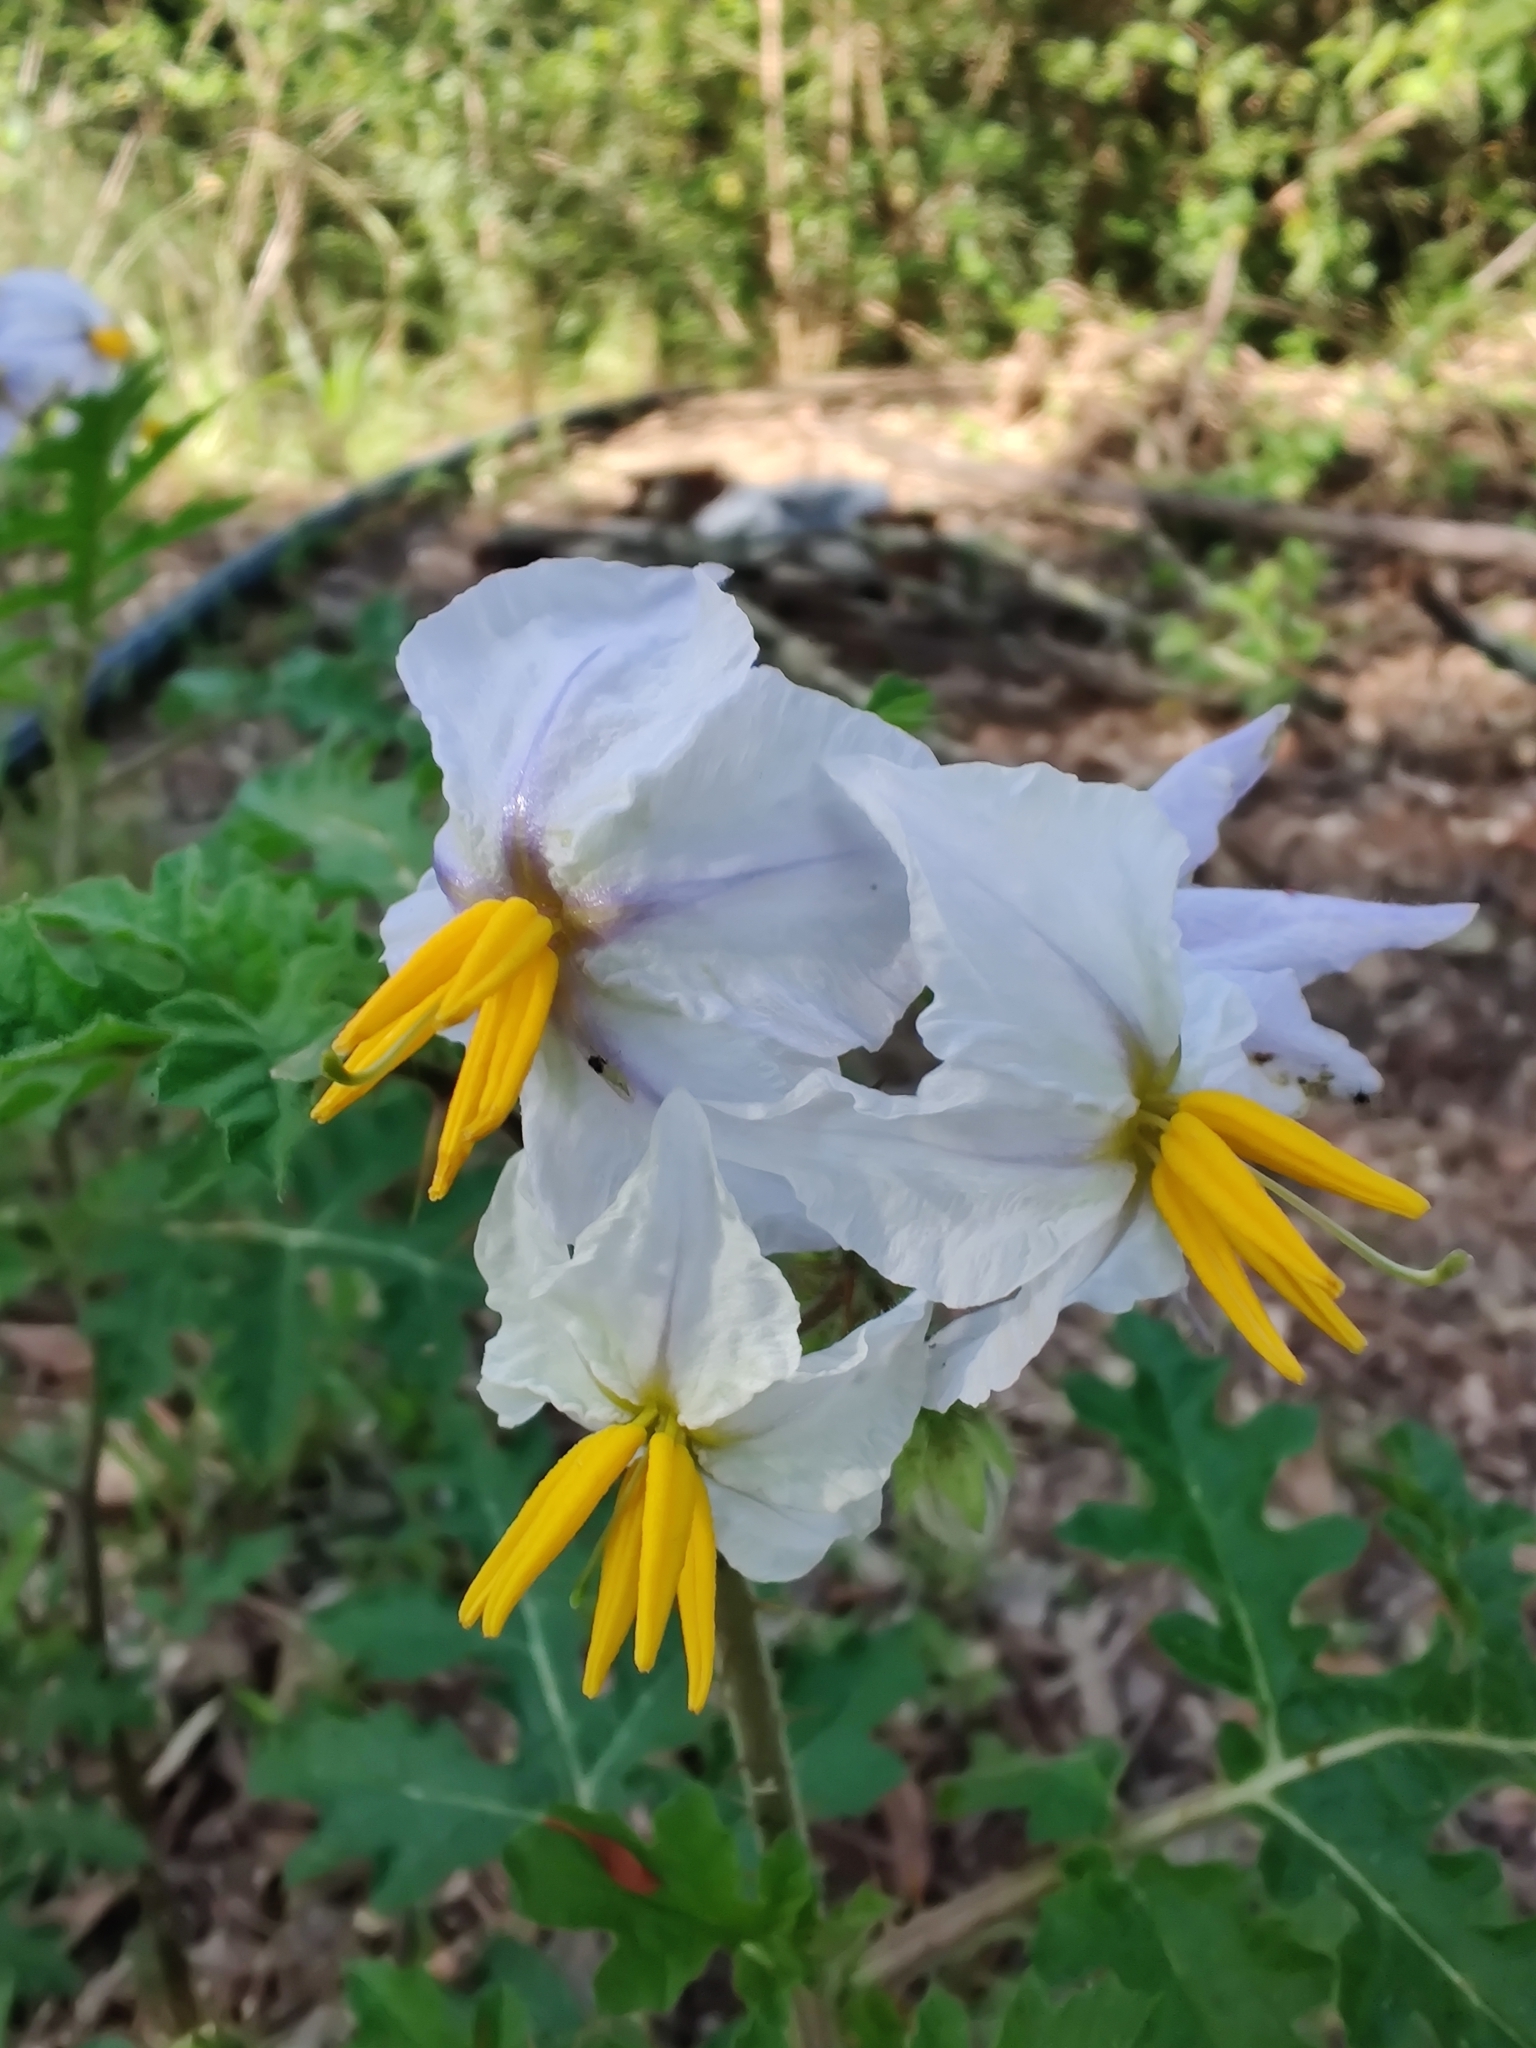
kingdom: Plantae
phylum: Tracheophyta
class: Magnoliopsida
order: Solanales
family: Solanaceae
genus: Solanum
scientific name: Solanum sisymbriifolium
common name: Red buffalo-bur
